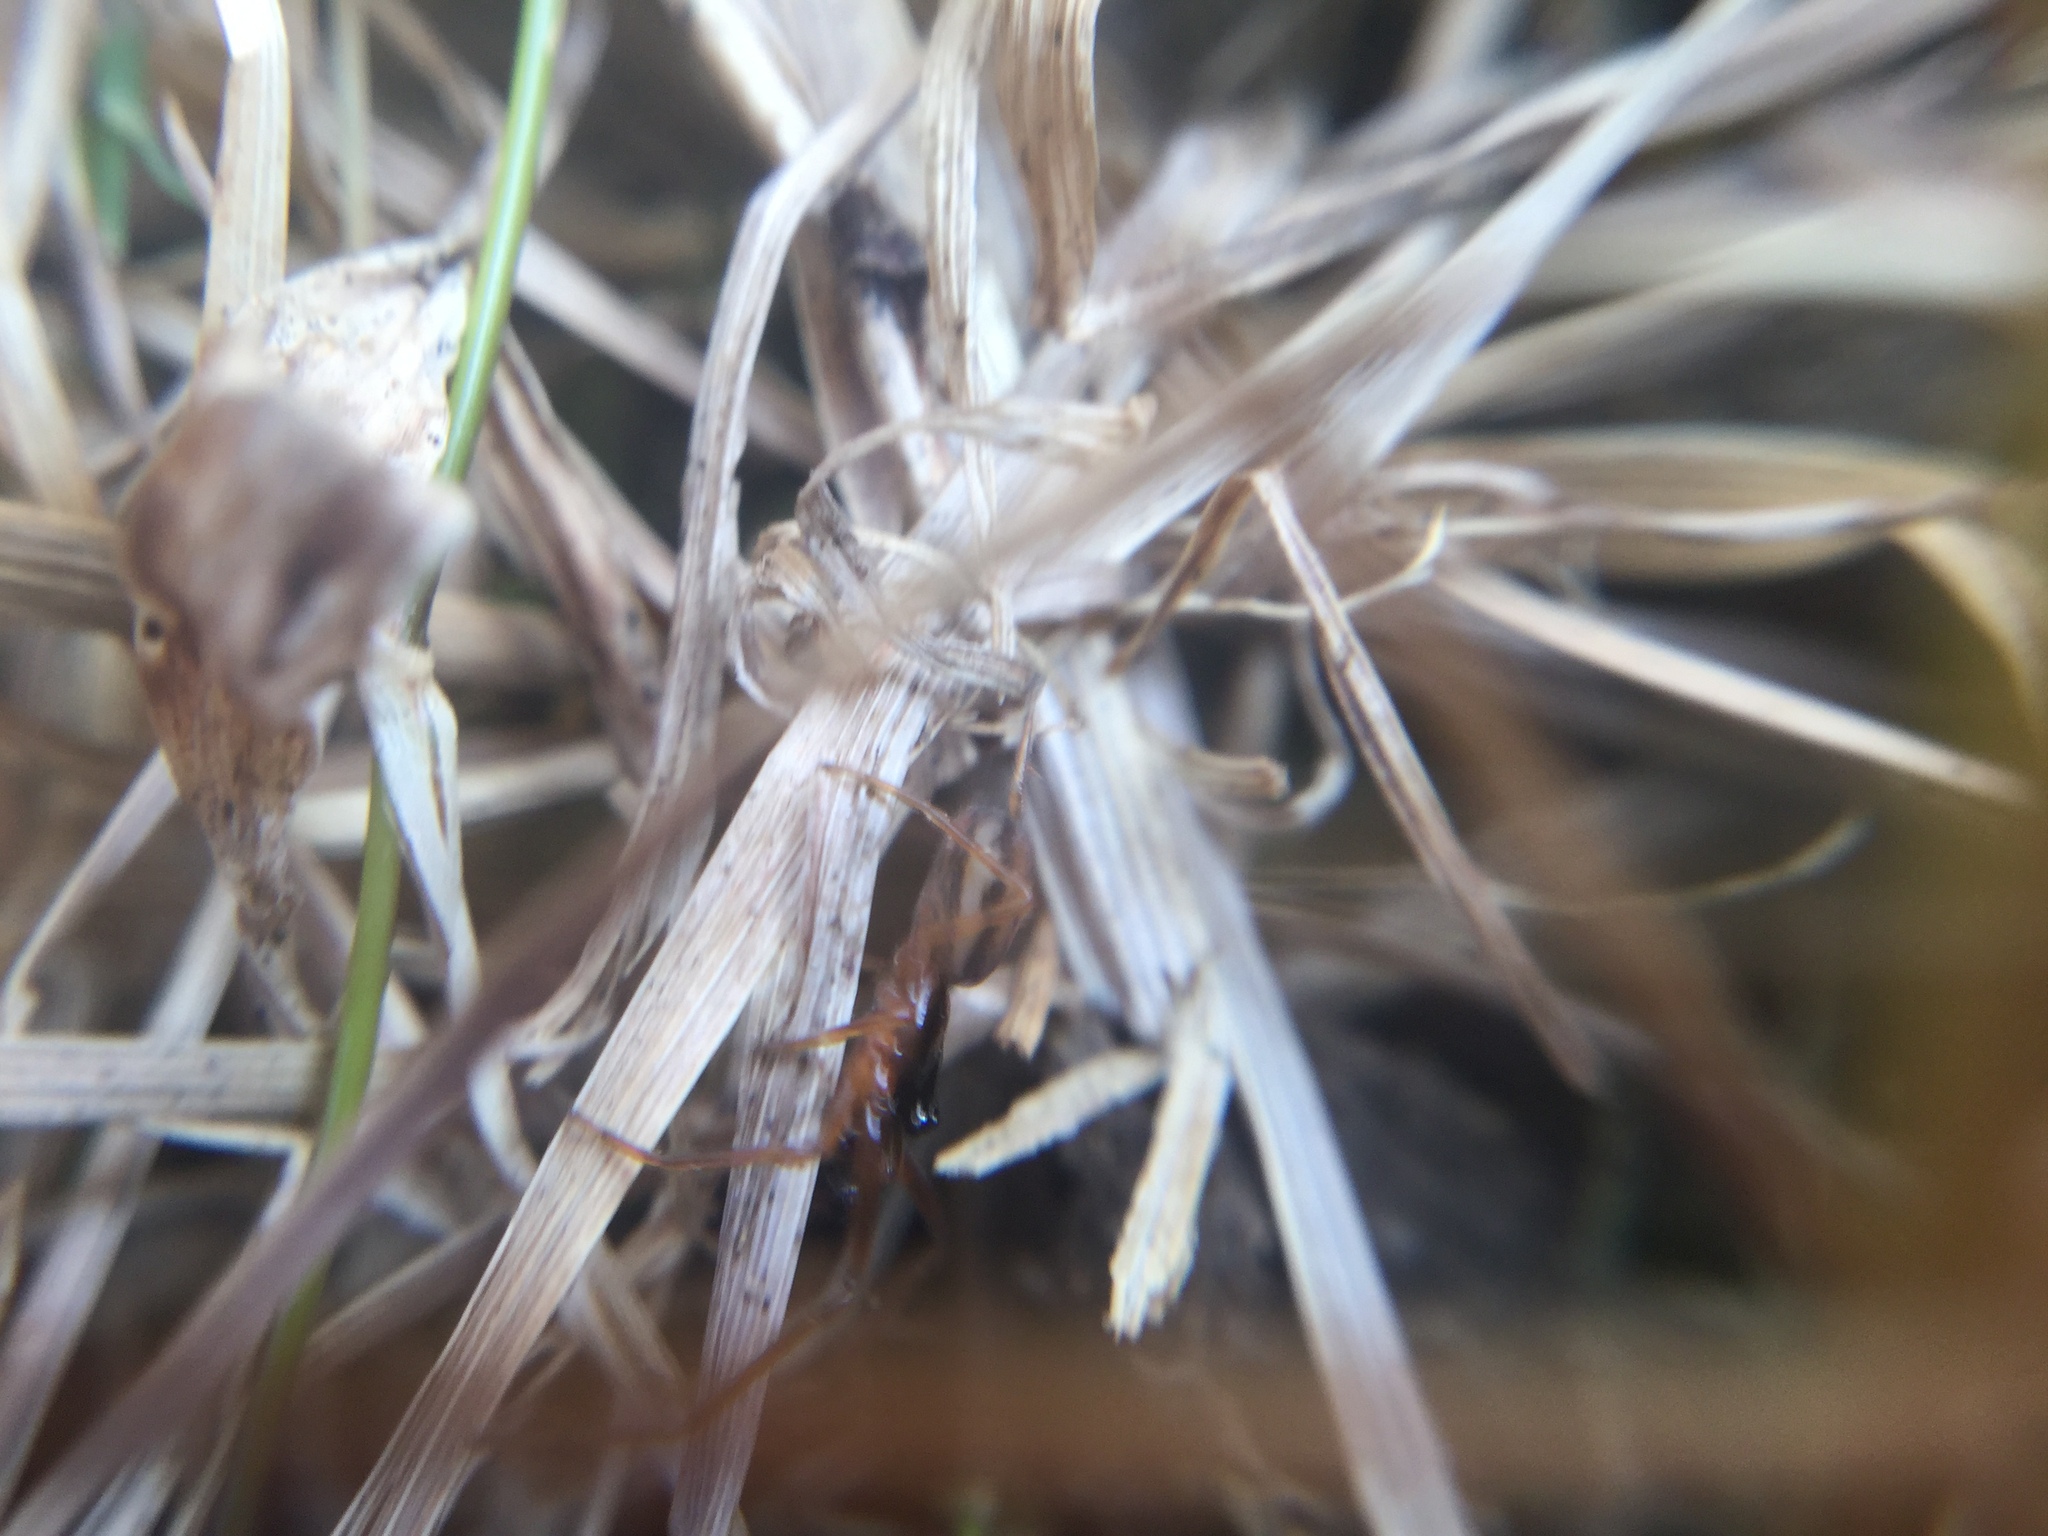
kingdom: Animalia
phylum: Arthropoda
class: Arachnida
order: Araneae
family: Tetragnathidae
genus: Pachygnatha
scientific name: Pachygnatha autumnalis
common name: Big-eyed thick-jawed spider
